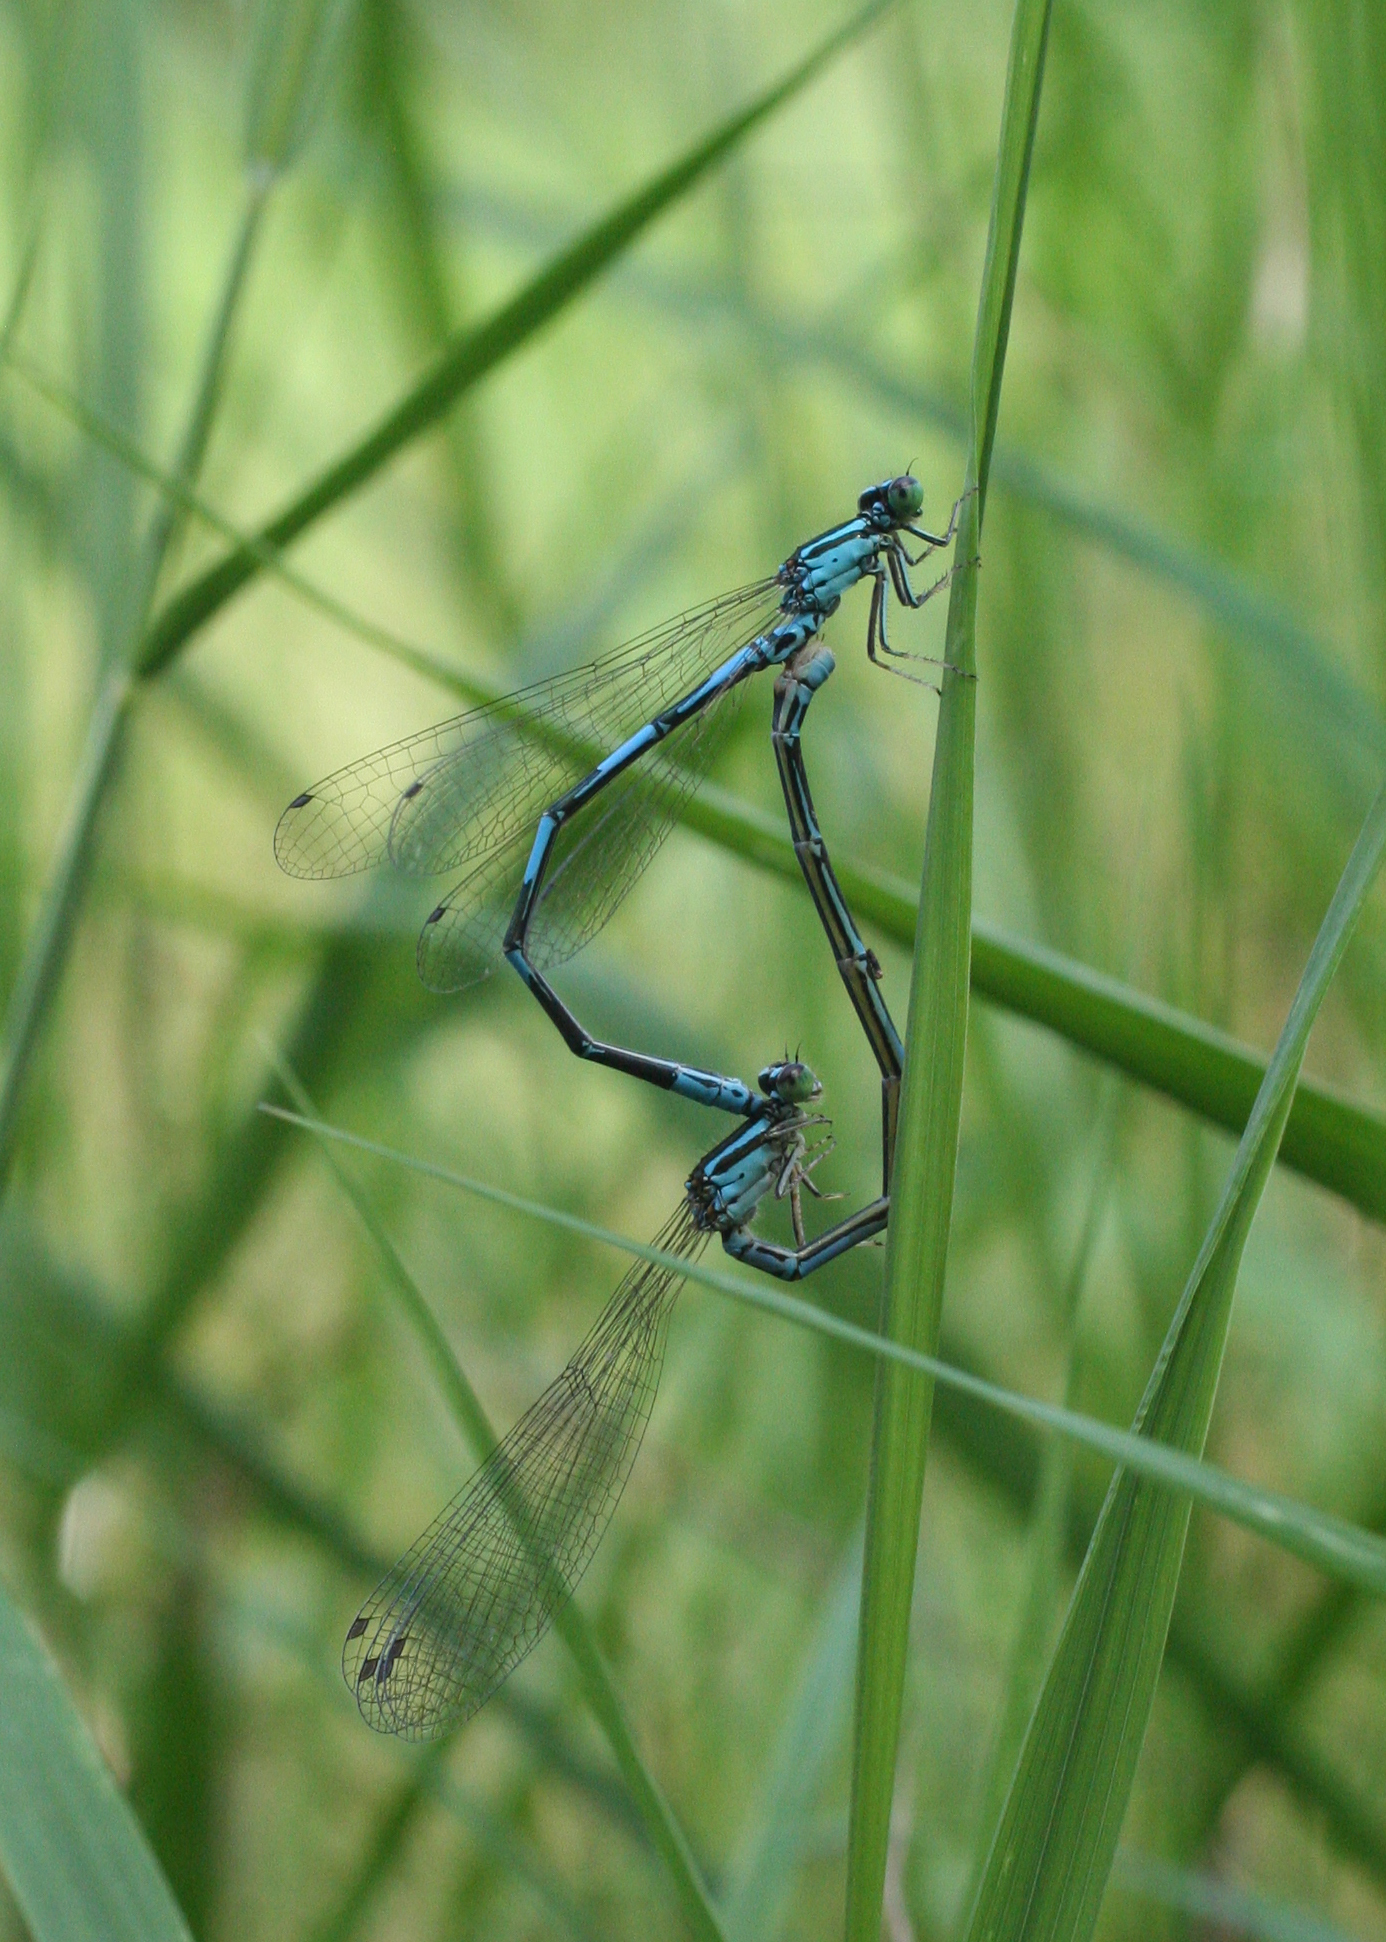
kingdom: Animalia
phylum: Arthropoda
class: Insecta
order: Odonata
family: Coenagrionidae
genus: Coenagrion
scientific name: Coenagrion johanssoni
